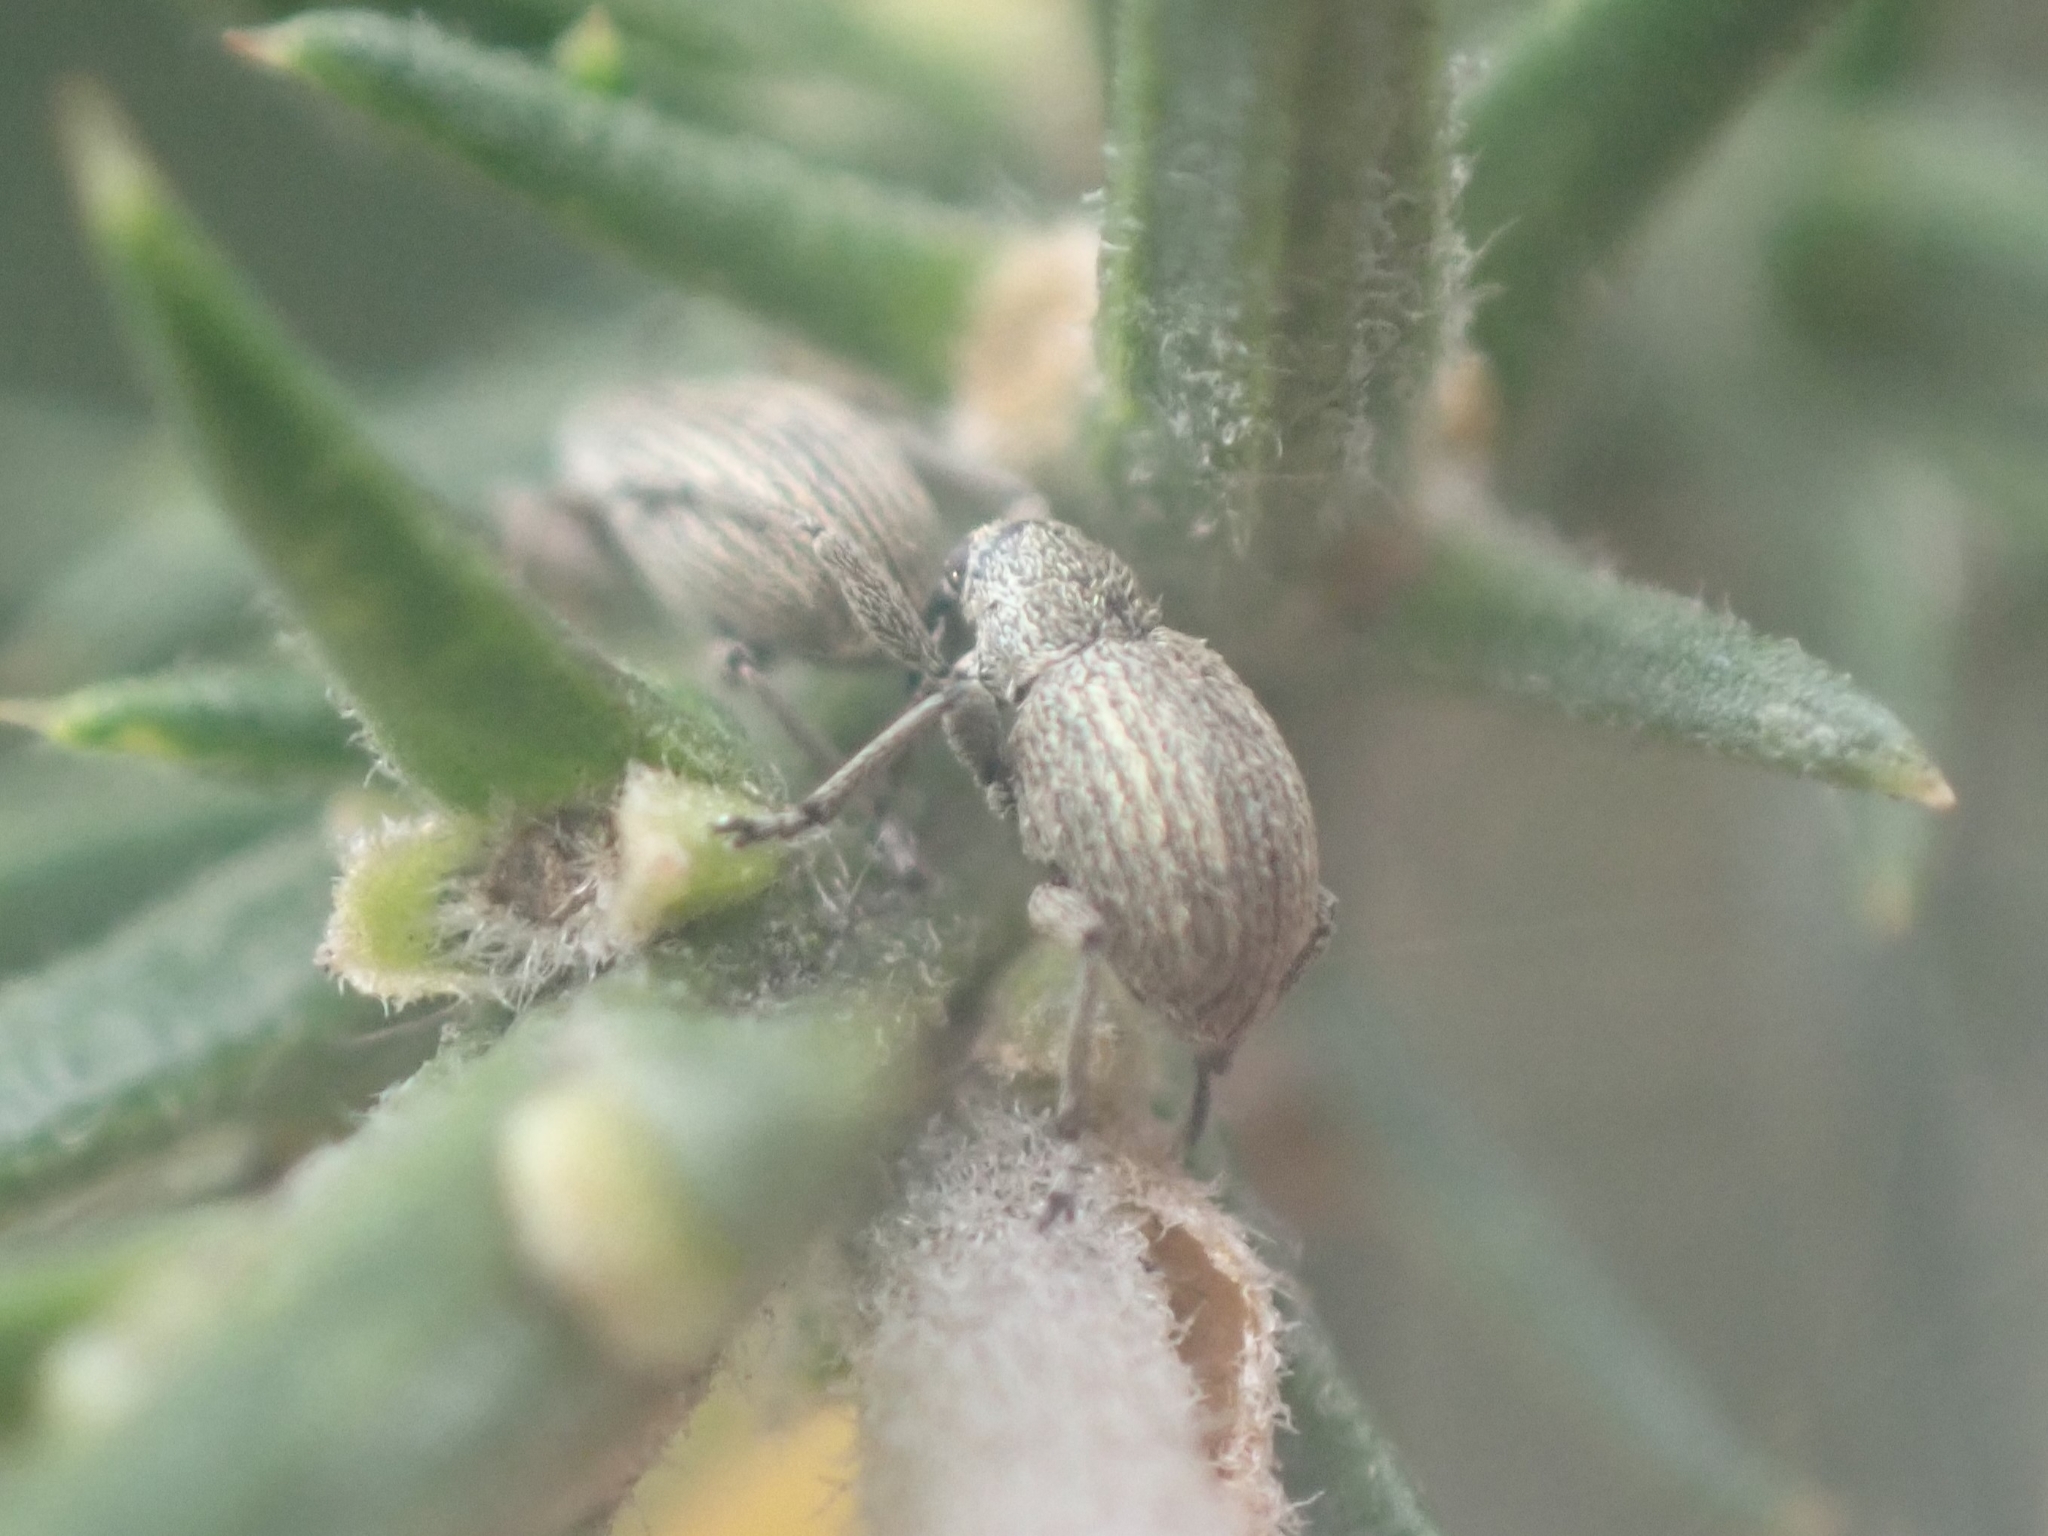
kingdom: Animalia
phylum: Arthropoda
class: Insecta
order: Coleoptera
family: Brentidae
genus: Exapion
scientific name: Exapion ulicis
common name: Gorse seed weevil
